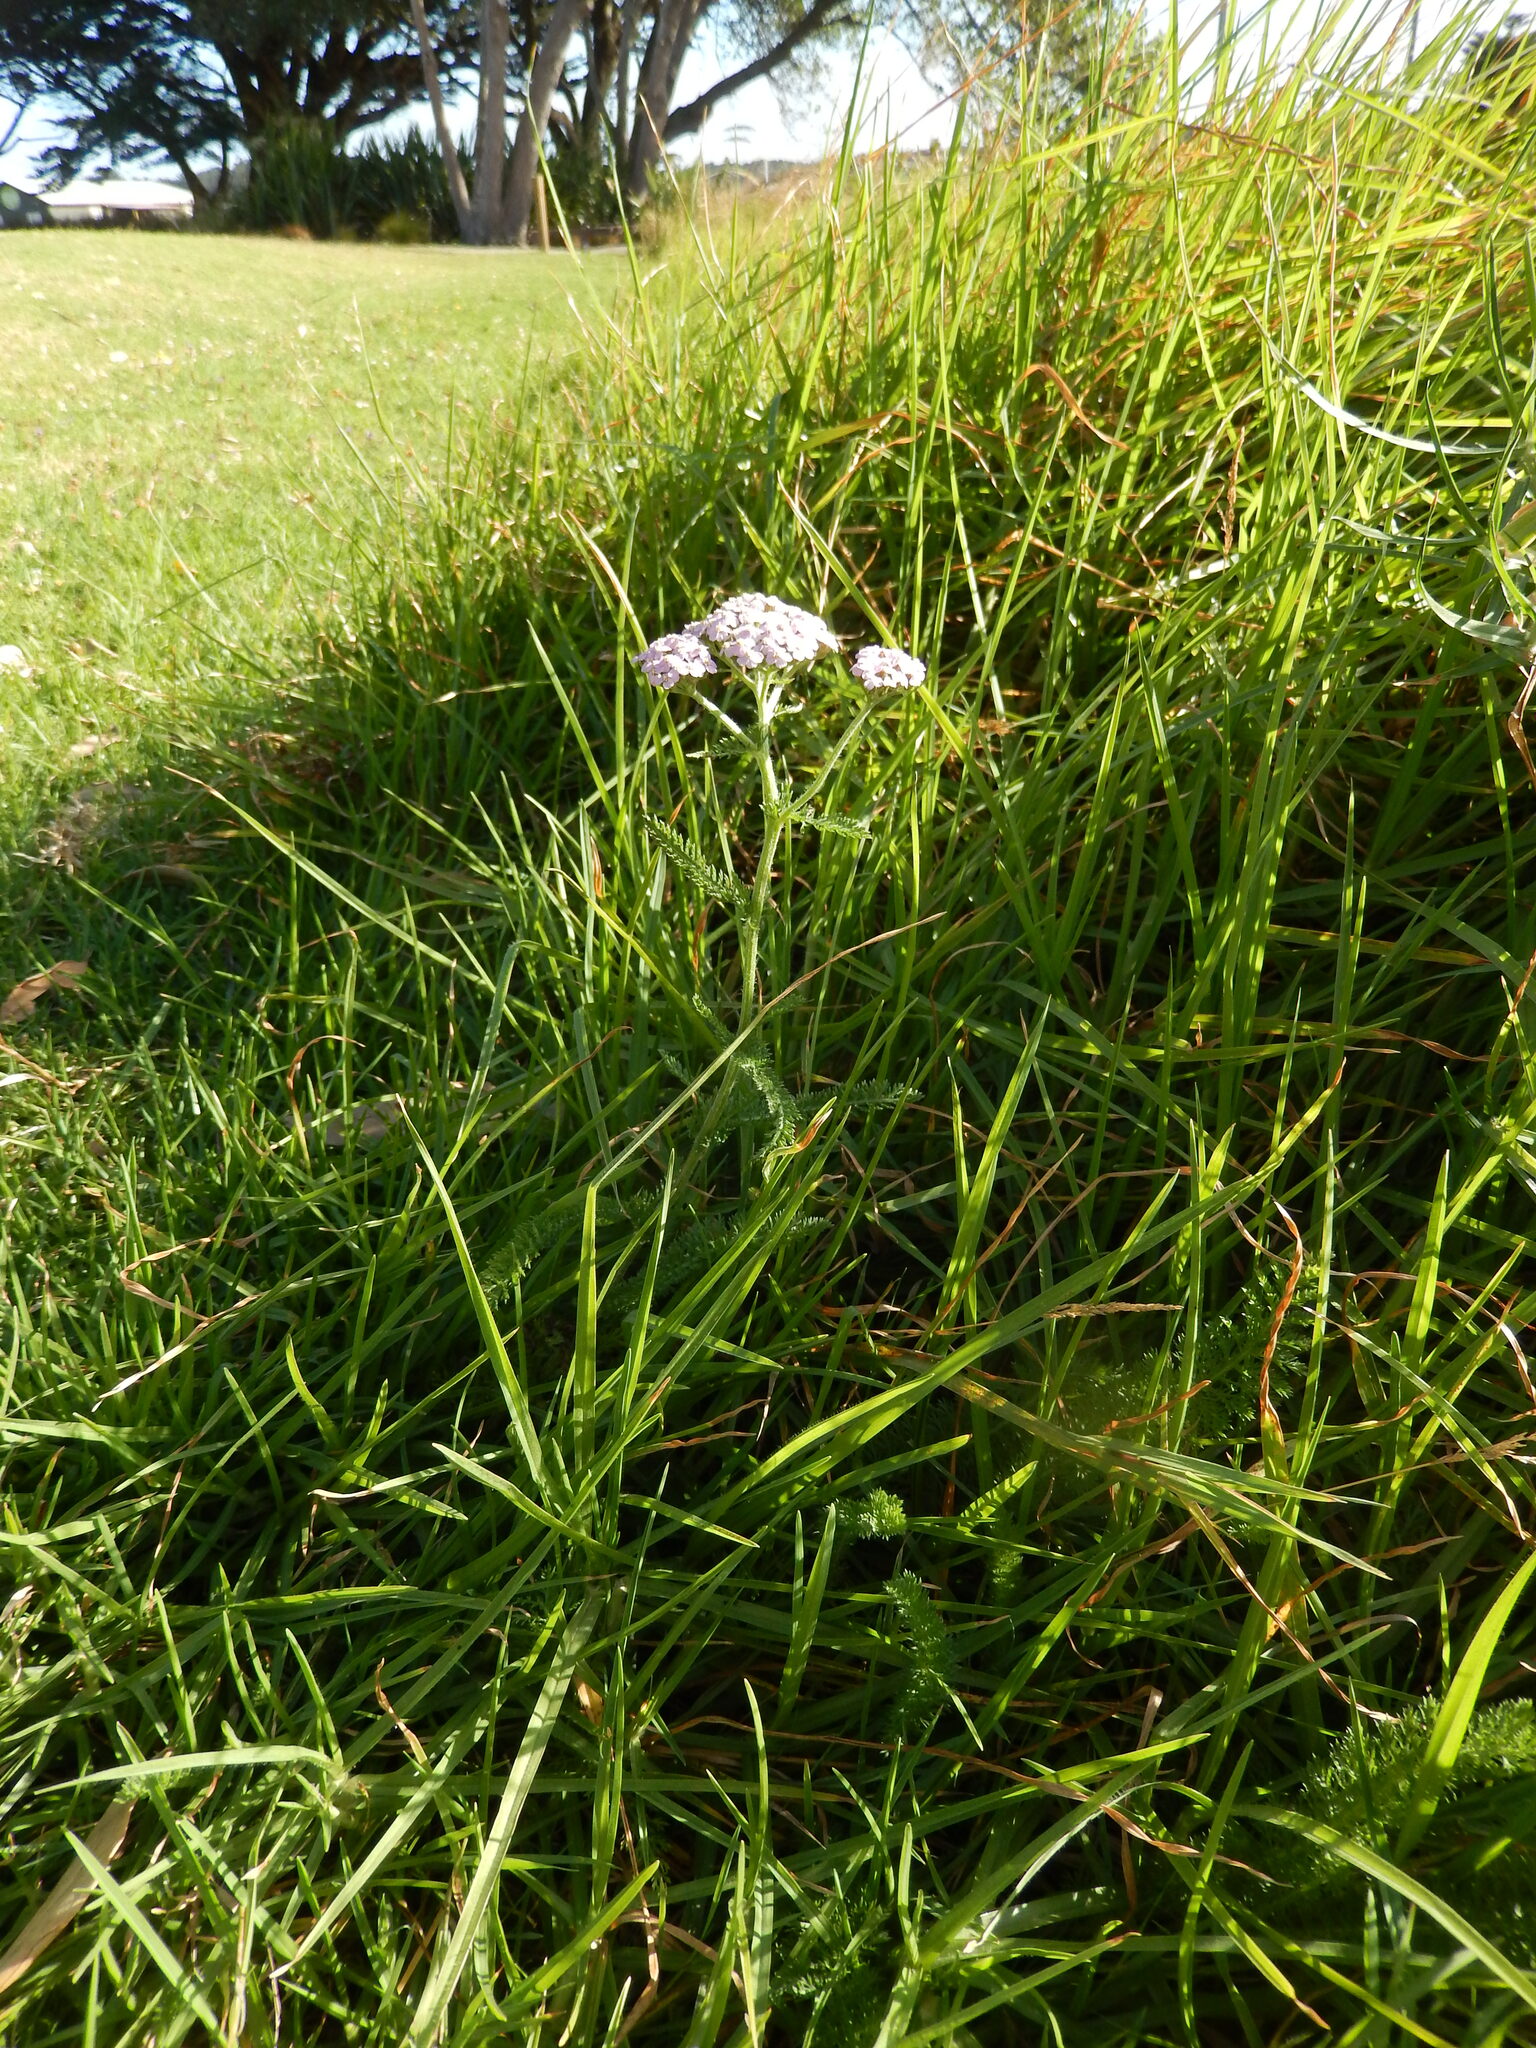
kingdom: Plantae
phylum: Tracheophyta
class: Magnoliopsida
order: Asterales
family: Asteraceae
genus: Achillea
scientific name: Achillea millefolium
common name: Yarrow
